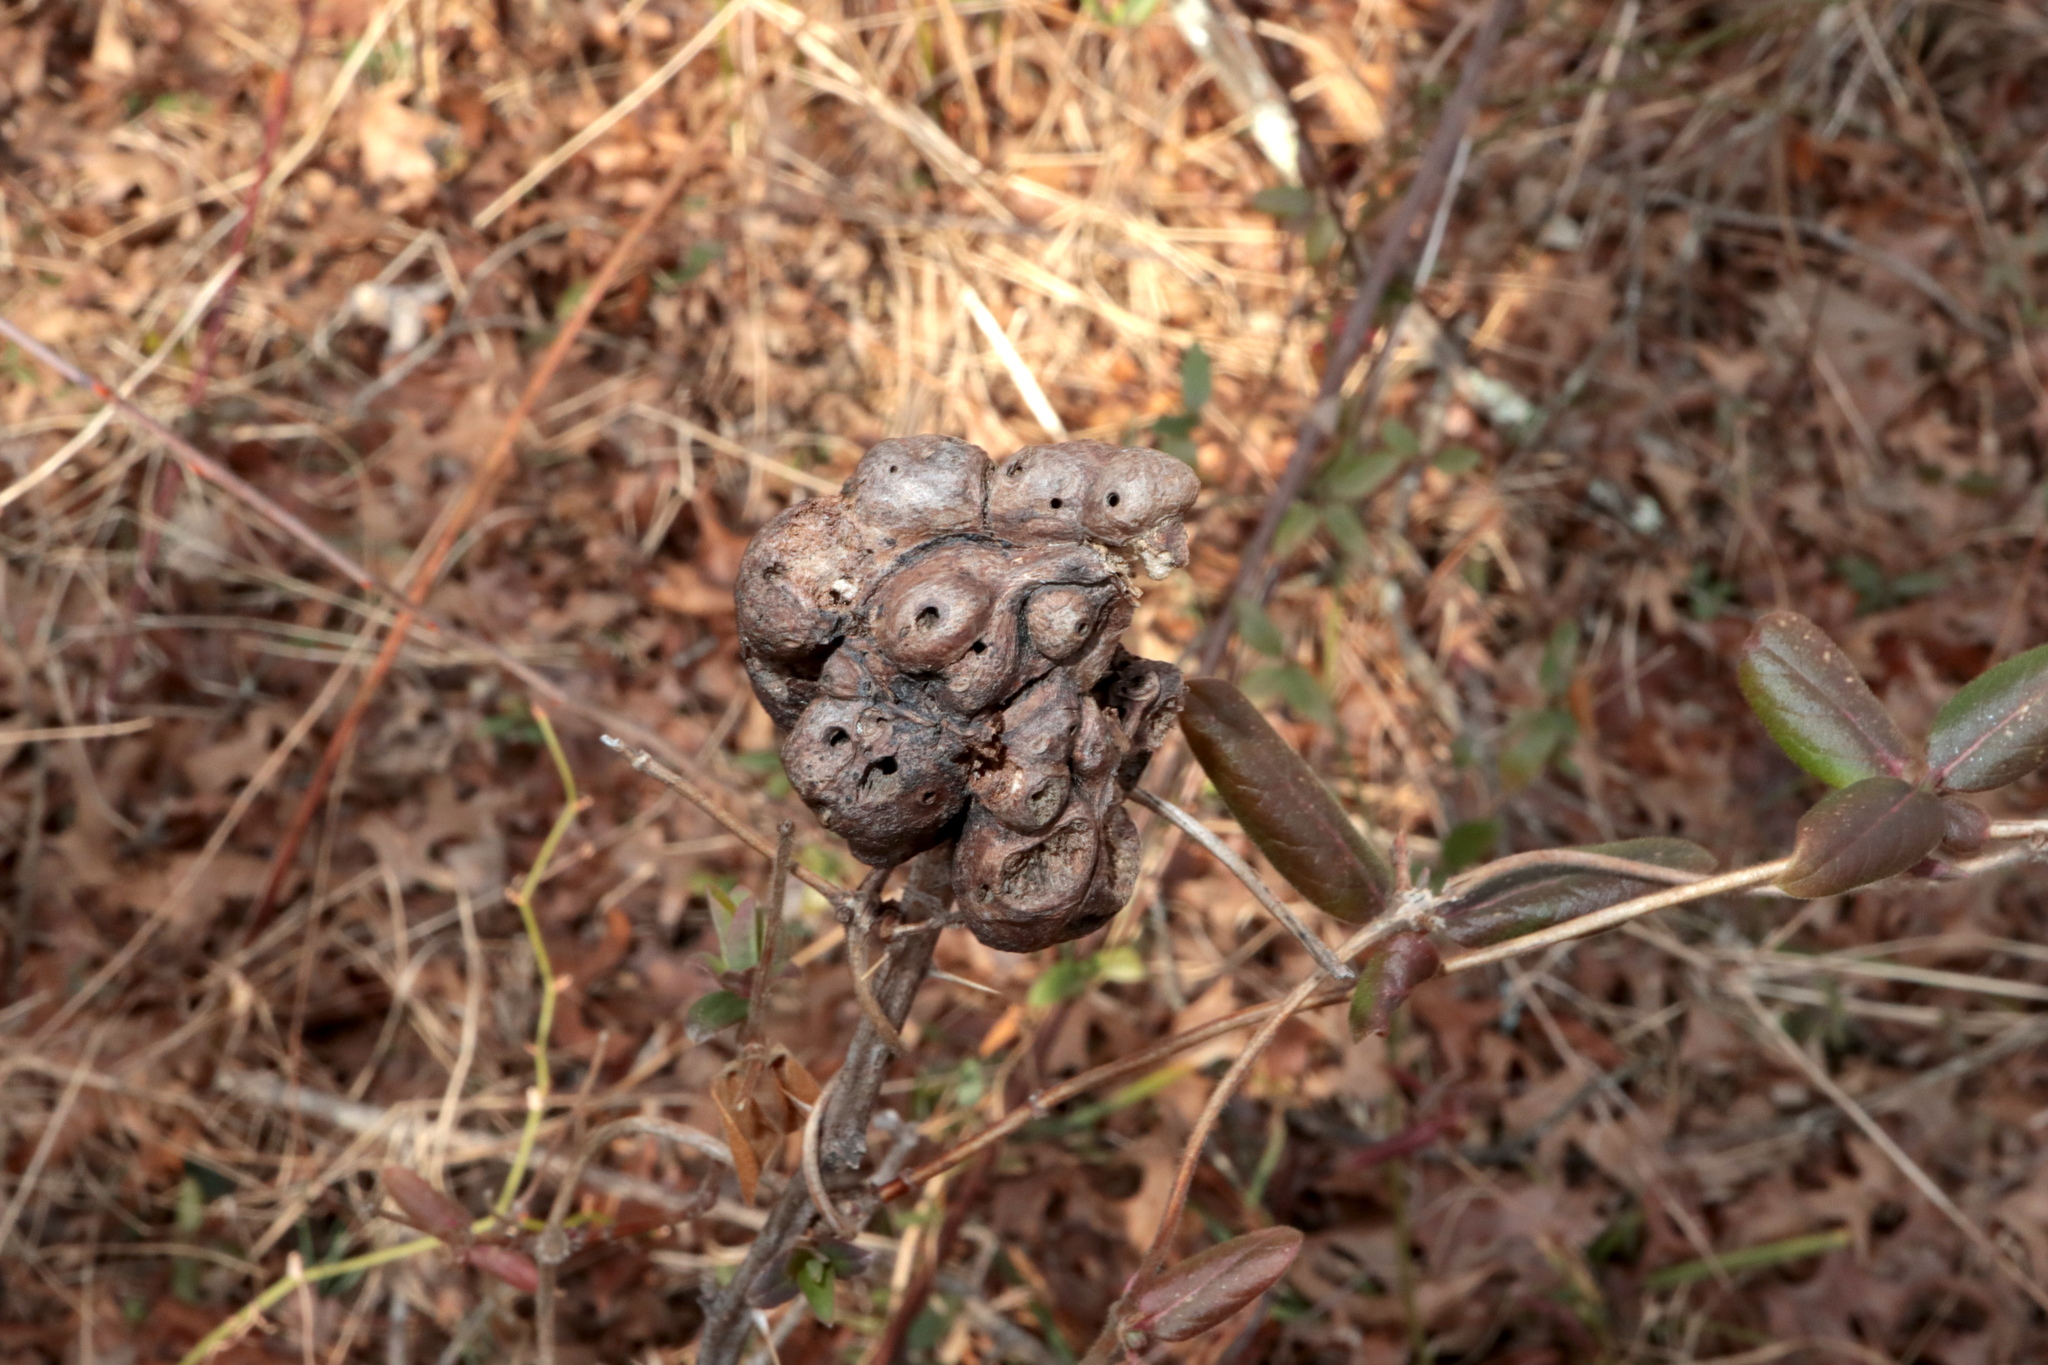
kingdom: Animalia
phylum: Arthropoda
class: Insecta
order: Hymenoptera
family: Cynipidae
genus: Diastrophus
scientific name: Diastrophus
